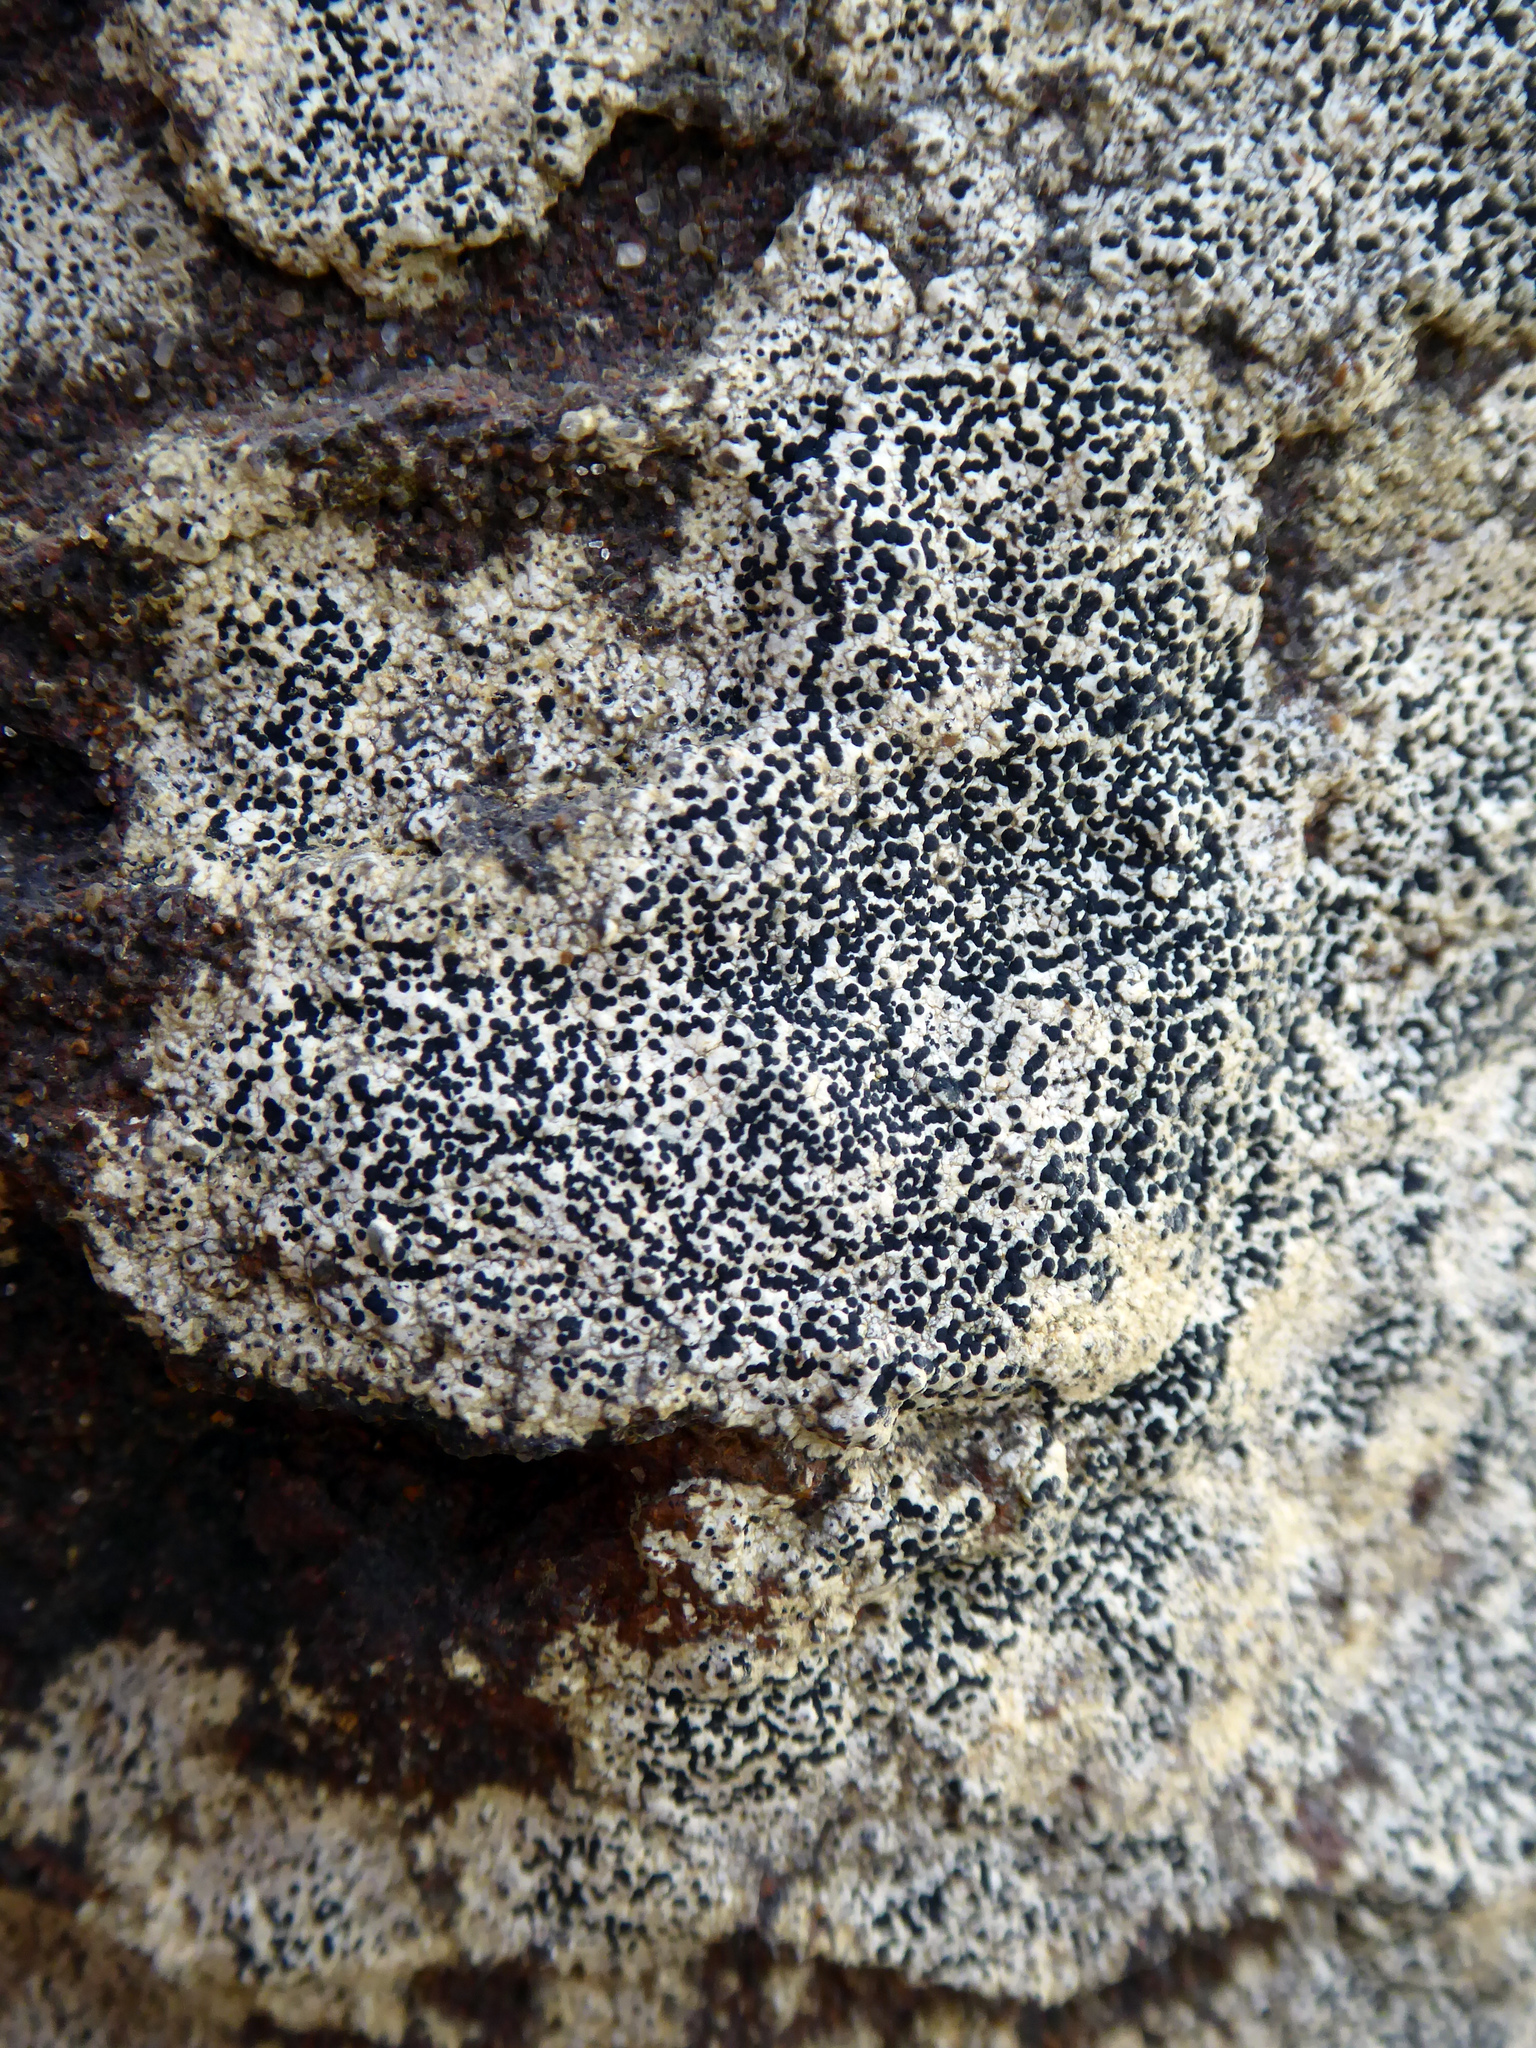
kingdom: Fungi
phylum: Ascomycota
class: Lecanoromycetes
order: Caliciales
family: Physciaceae
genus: Rinodinella
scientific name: Rinodinella fertilis
